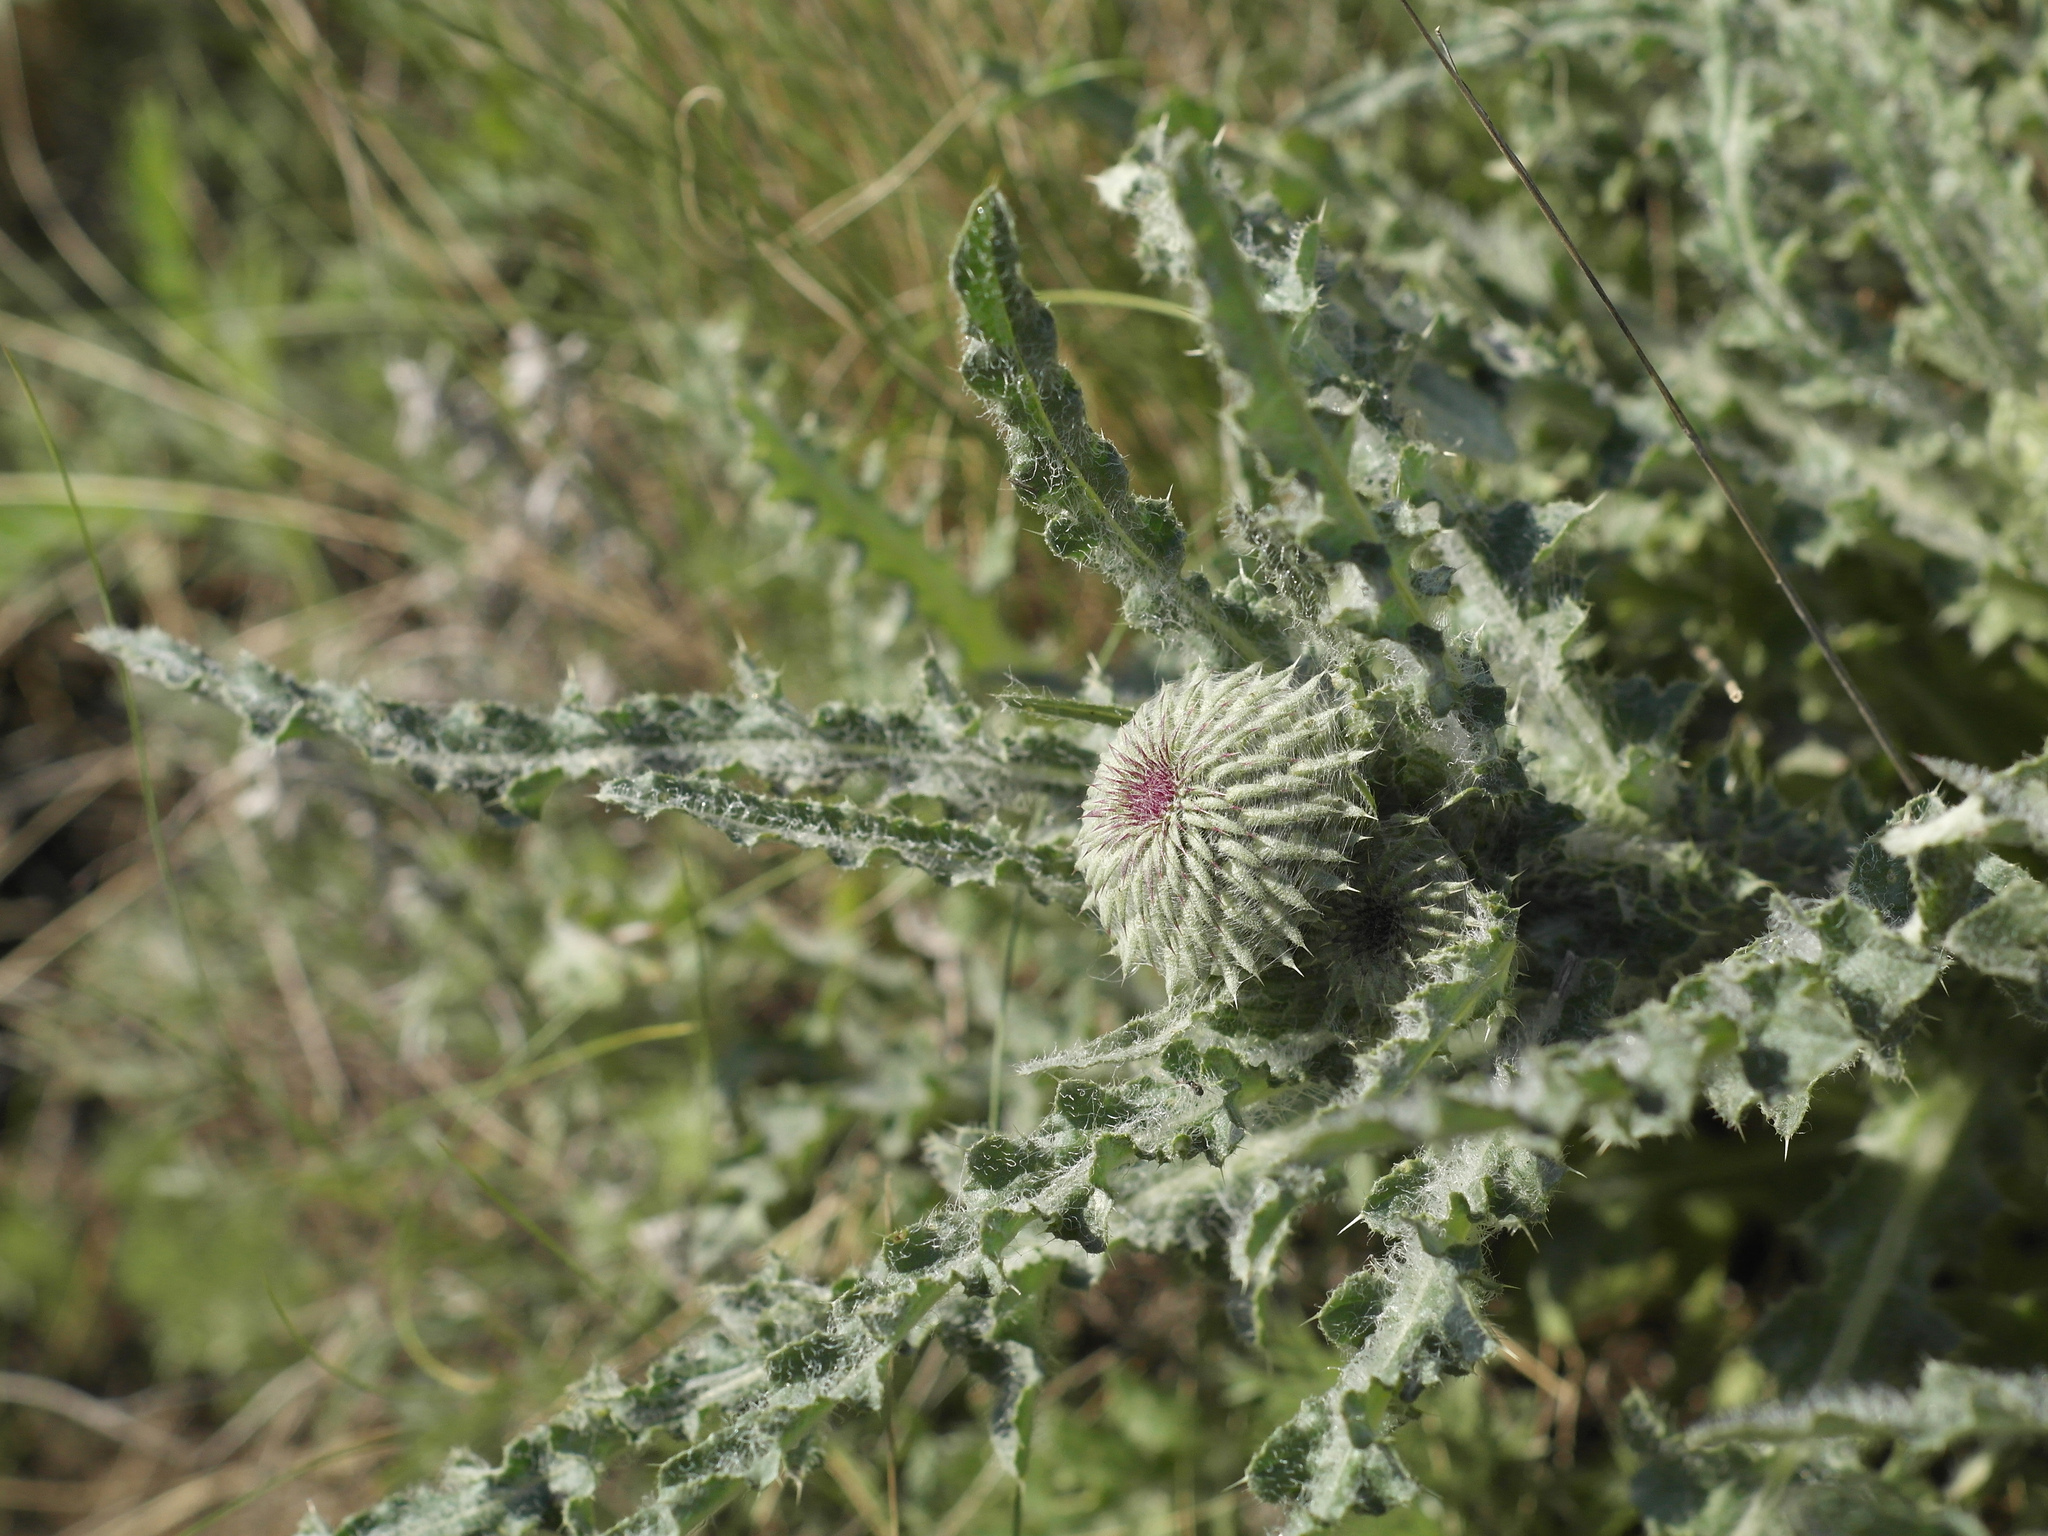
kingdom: Plantae
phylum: Tracheophyta
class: Magnoliopsida
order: Asterales
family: Asteraceae
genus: Carduus
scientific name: Carduus uncinatus
